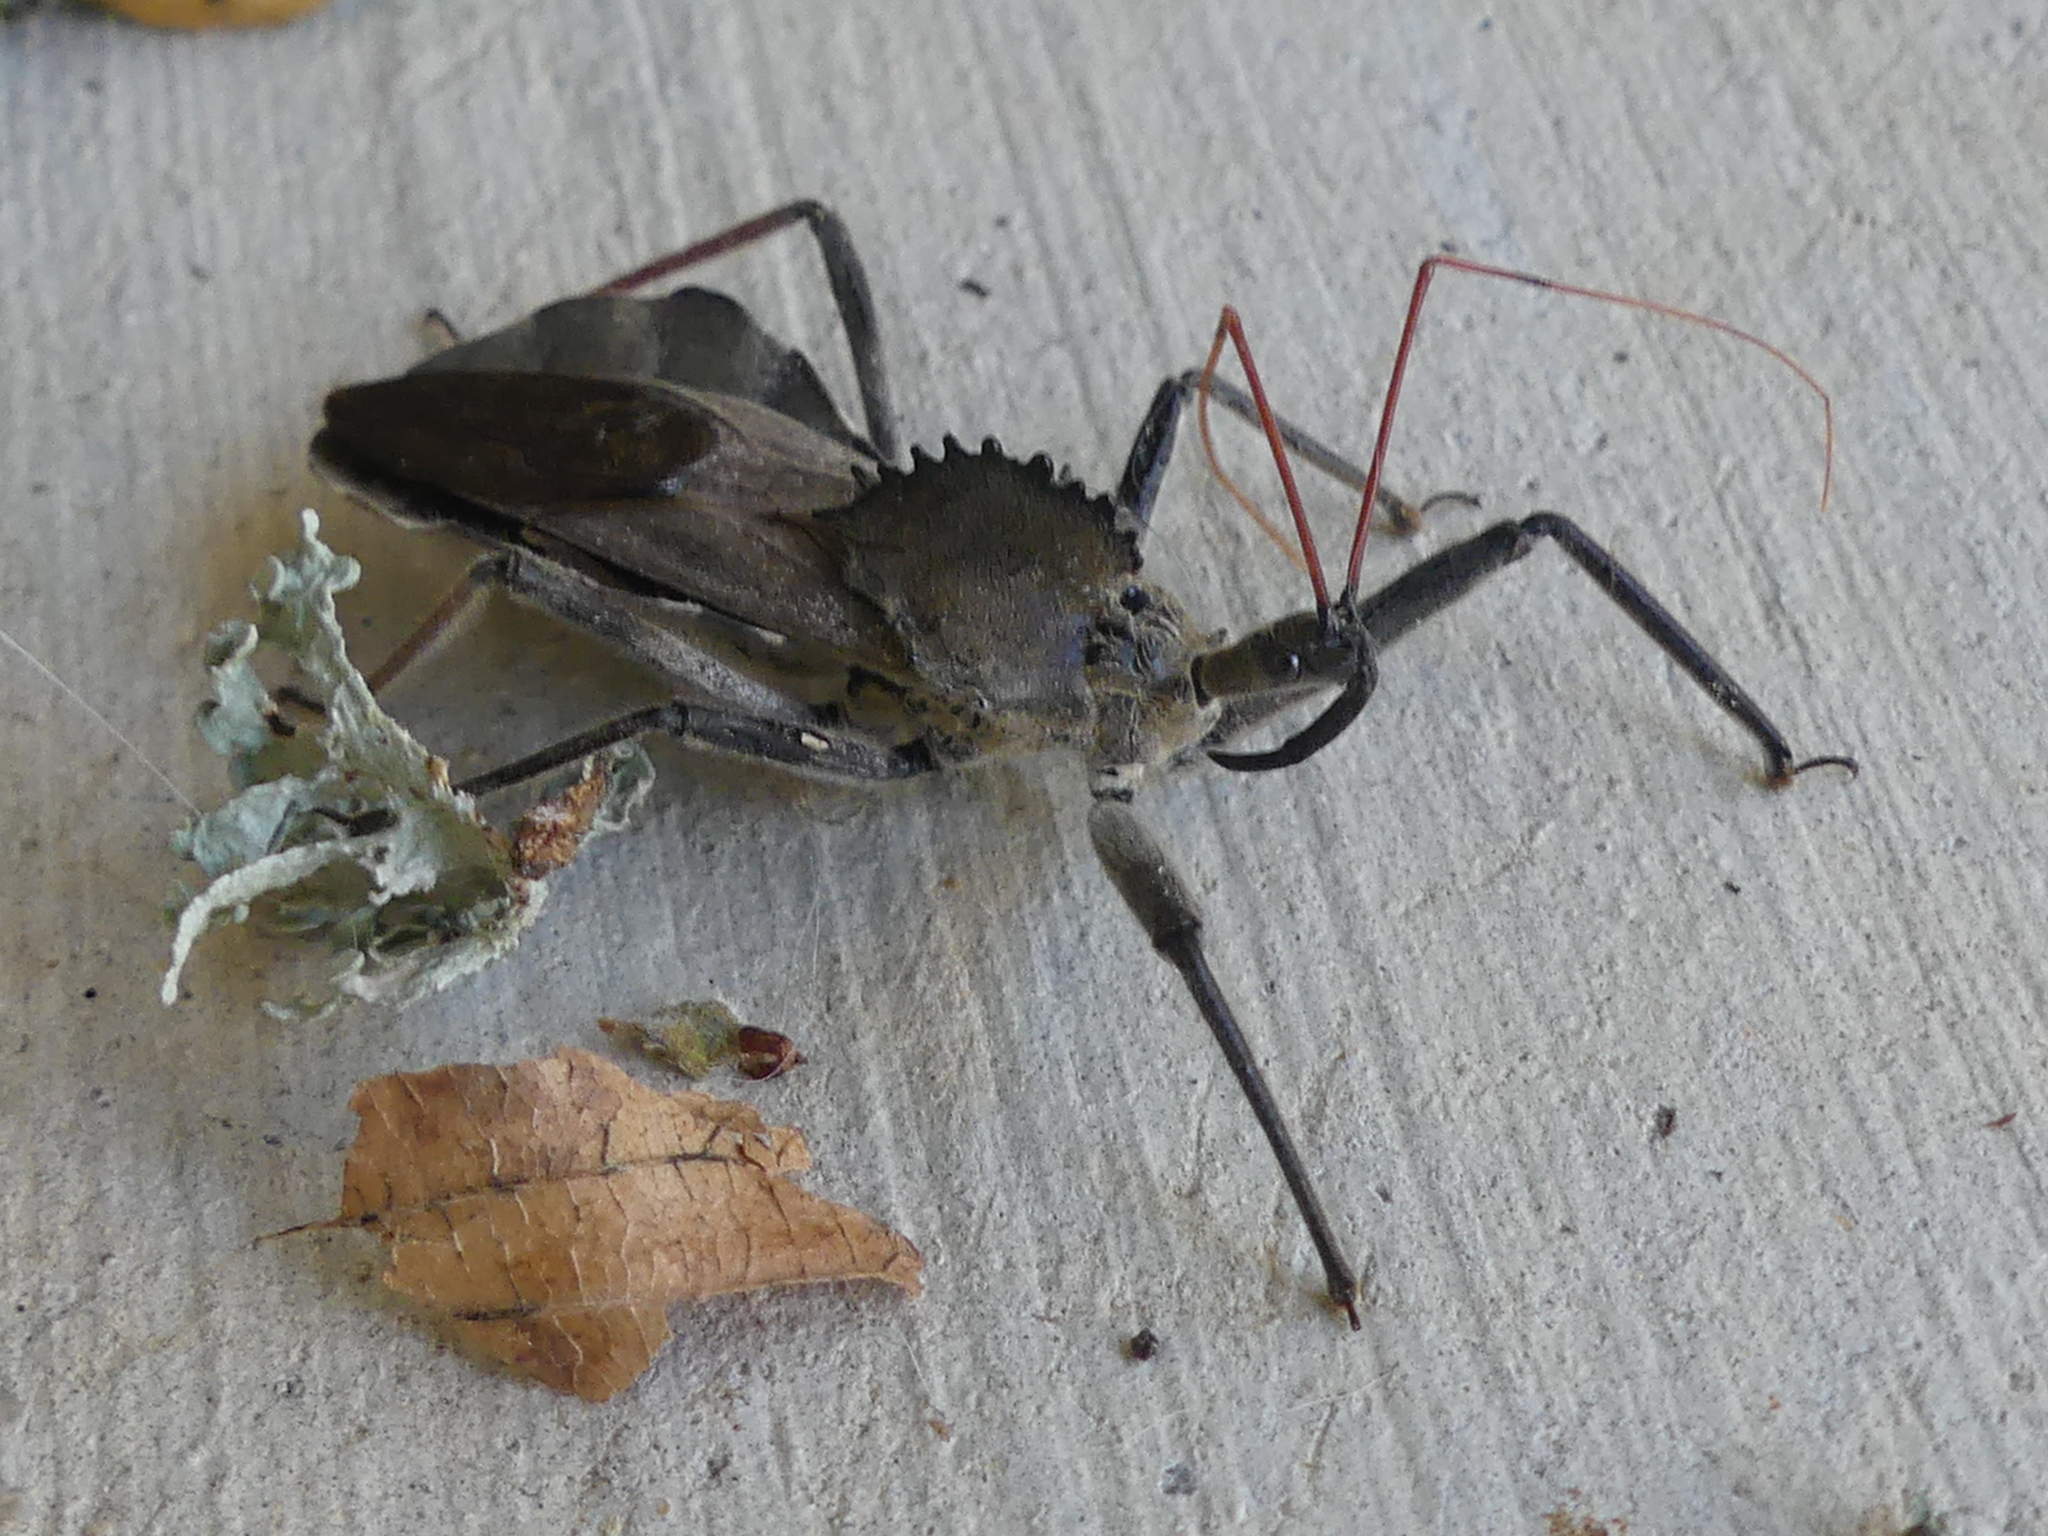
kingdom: Animalia
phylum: Arthropoda
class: Insecta
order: Hemiptera
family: Reduviidae
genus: Arilus
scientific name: Arilus cristatus
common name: North american wheel bug
